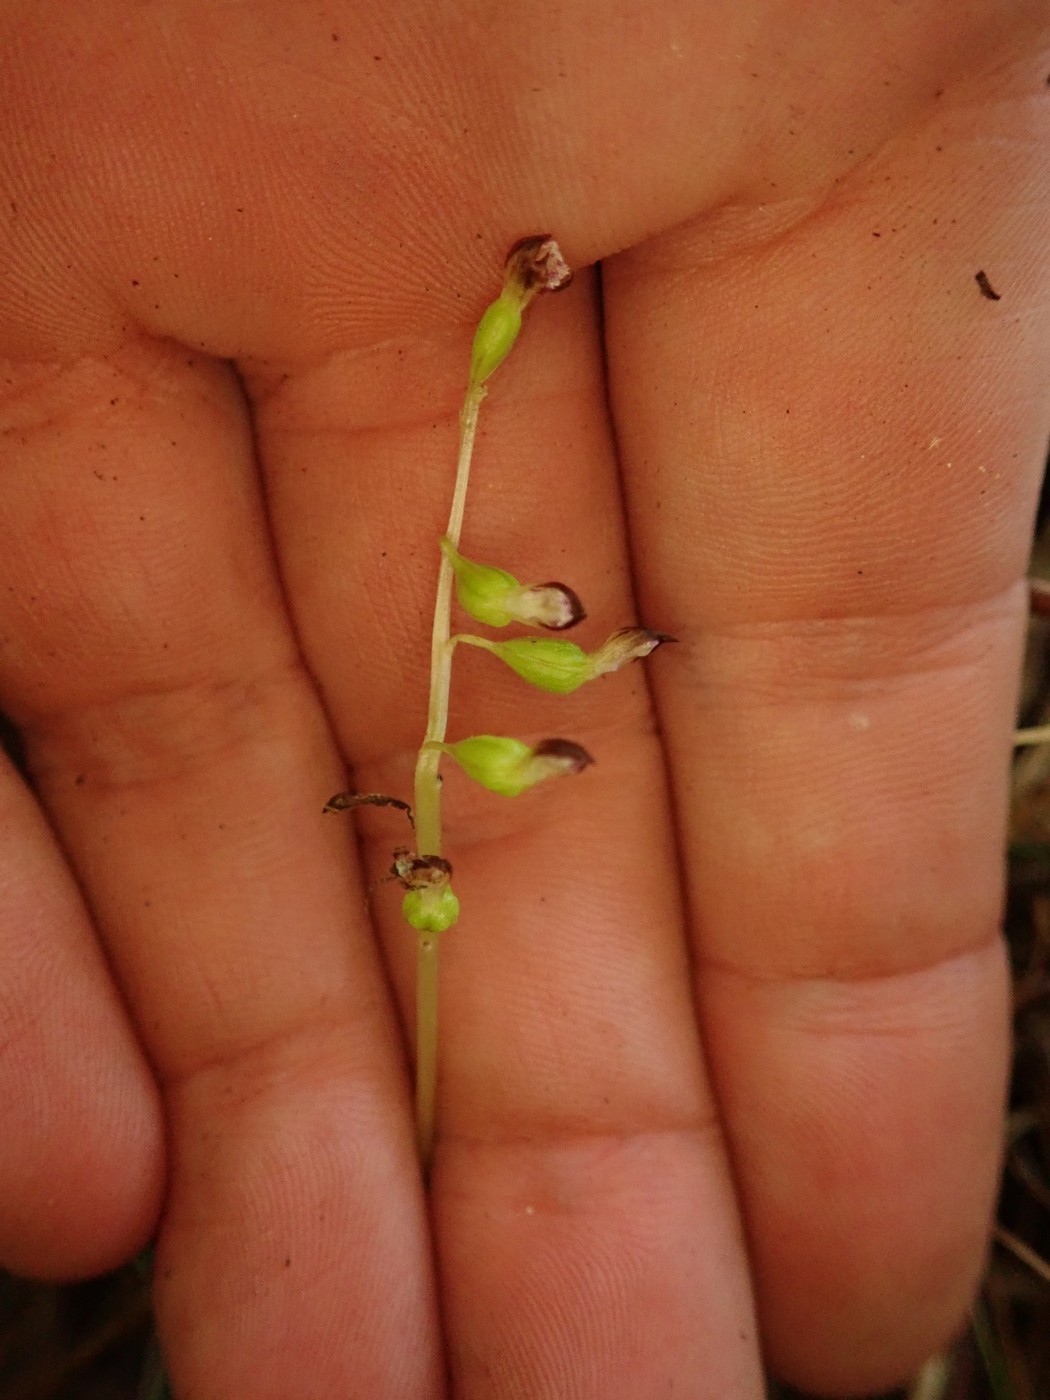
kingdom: Plantae
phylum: Tracheophyta
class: Liliopsida
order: Asparagales
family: Orchidaceae
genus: Corallorhiza
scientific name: Corallorhiza odontorhiza
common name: Autumn coralroot
